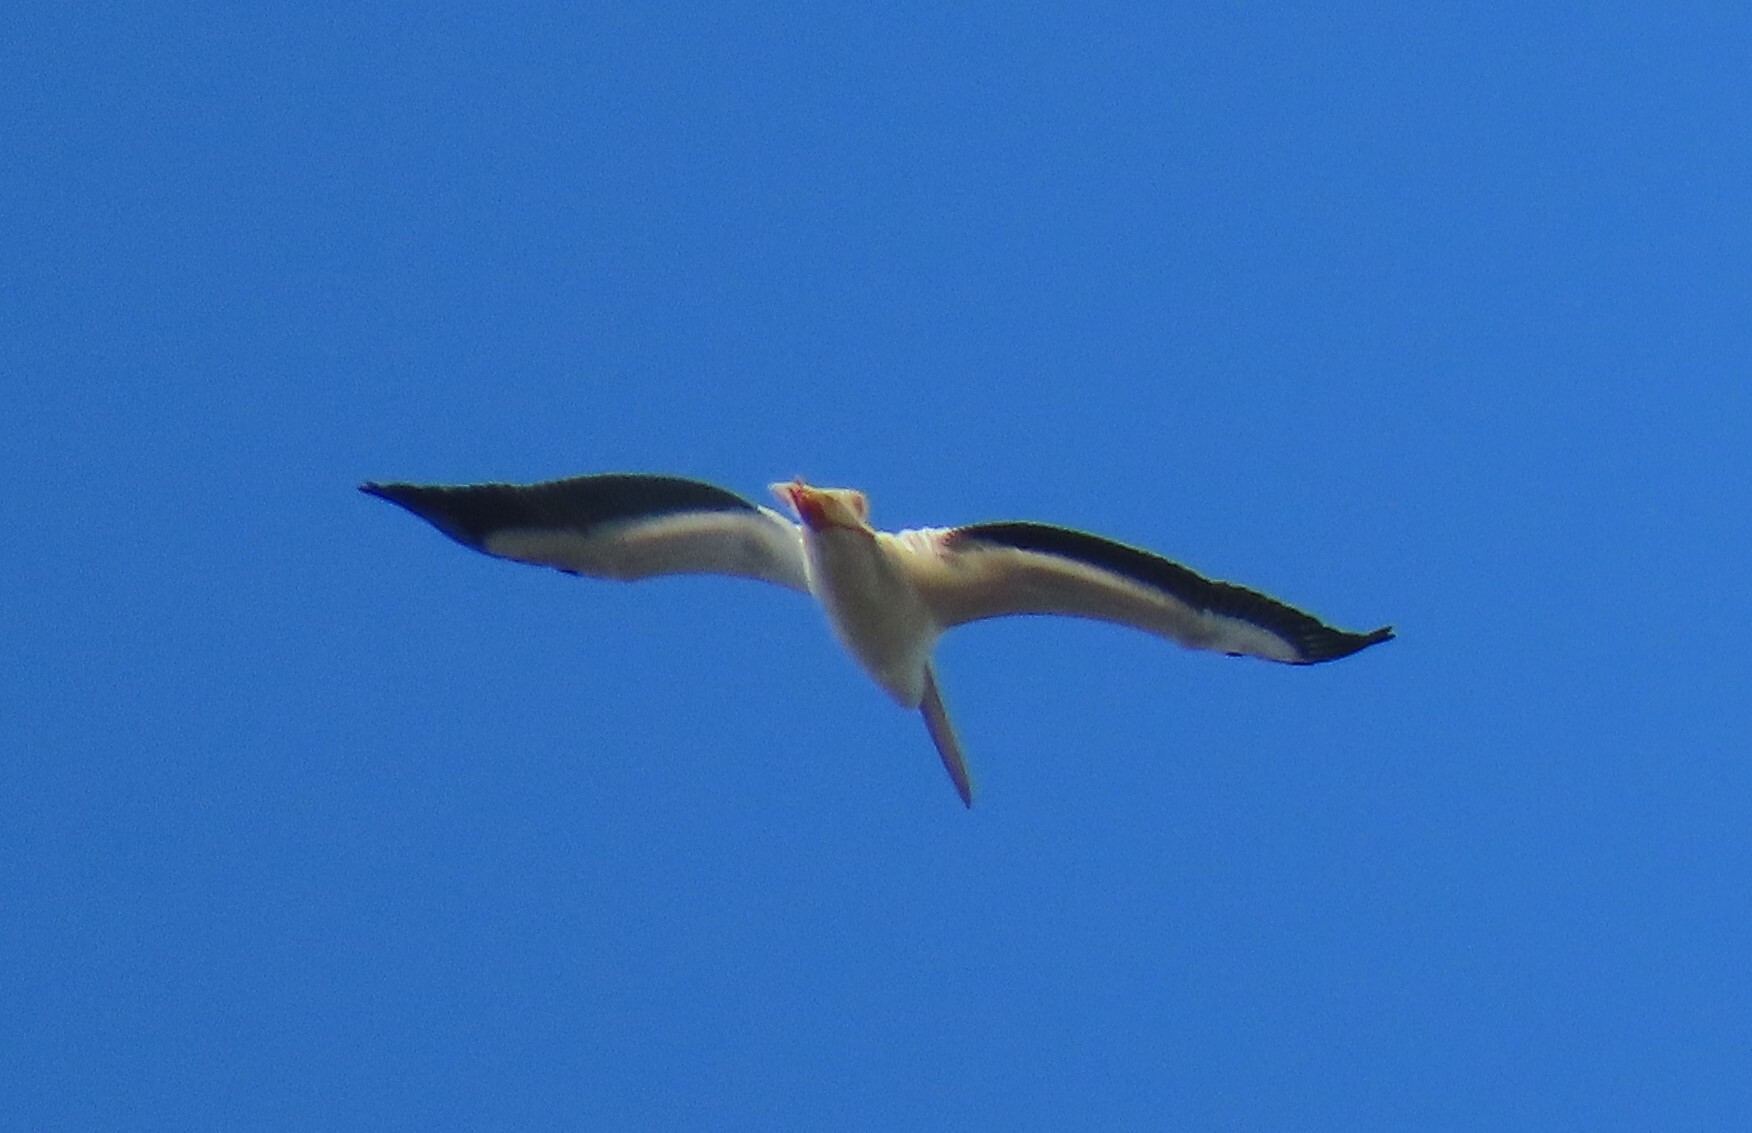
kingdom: Animalia
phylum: Chordata
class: Aves
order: Pelecaniformes
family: Pelecanidae
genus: Pelecanus
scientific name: Pelecanus erythrorhynchos
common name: American white pelican
